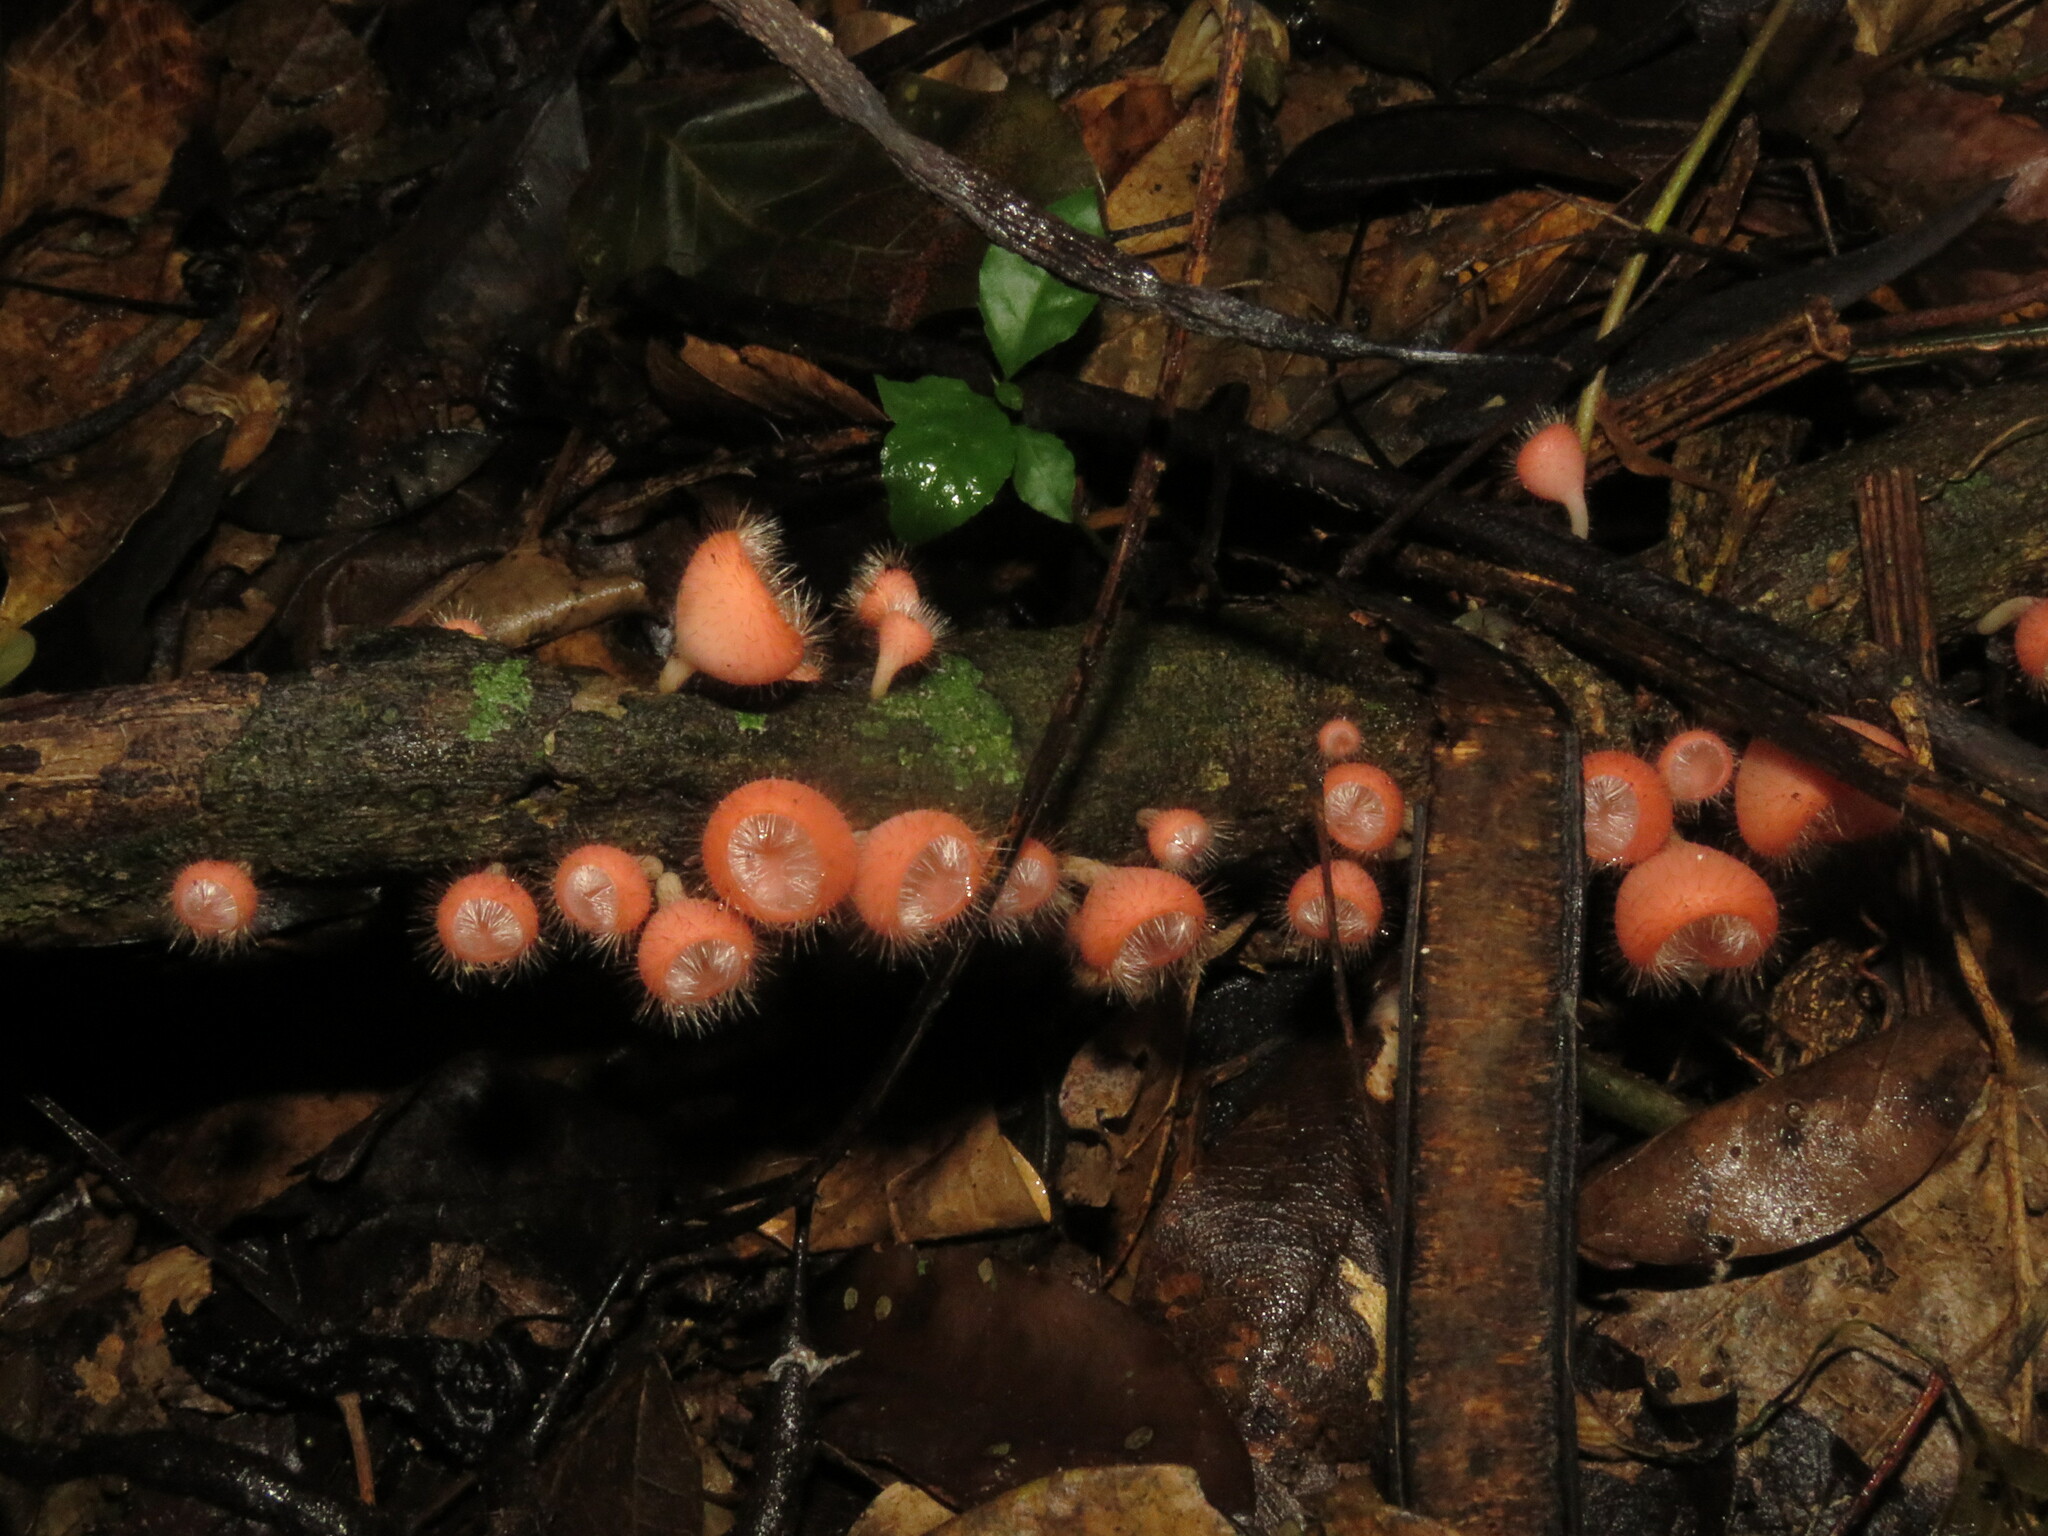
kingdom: Fungi
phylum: Ascomycota
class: Pezizomycetes
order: Pezizales
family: Sarcoscyphaceae
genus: Cookeina
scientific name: Cookeina tricholoma
